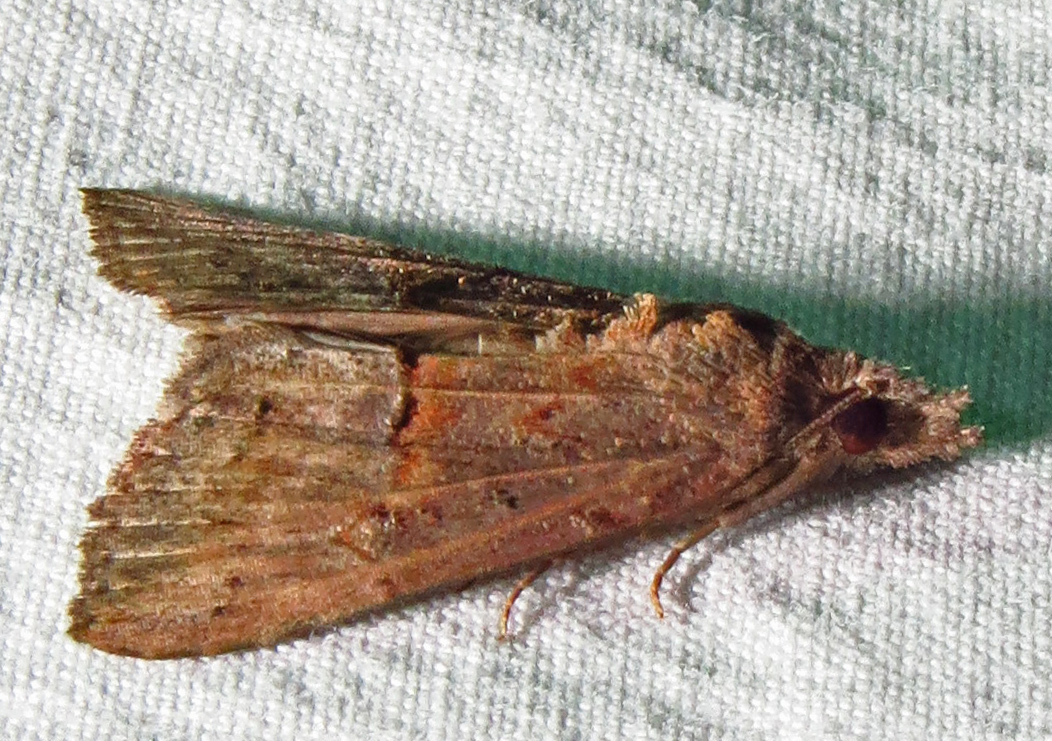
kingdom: Animalia
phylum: Arthropoda
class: Insecta
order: Lepidoptera
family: Erebidae
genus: Hypena
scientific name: Hypena scabra
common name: Green cloverworm
